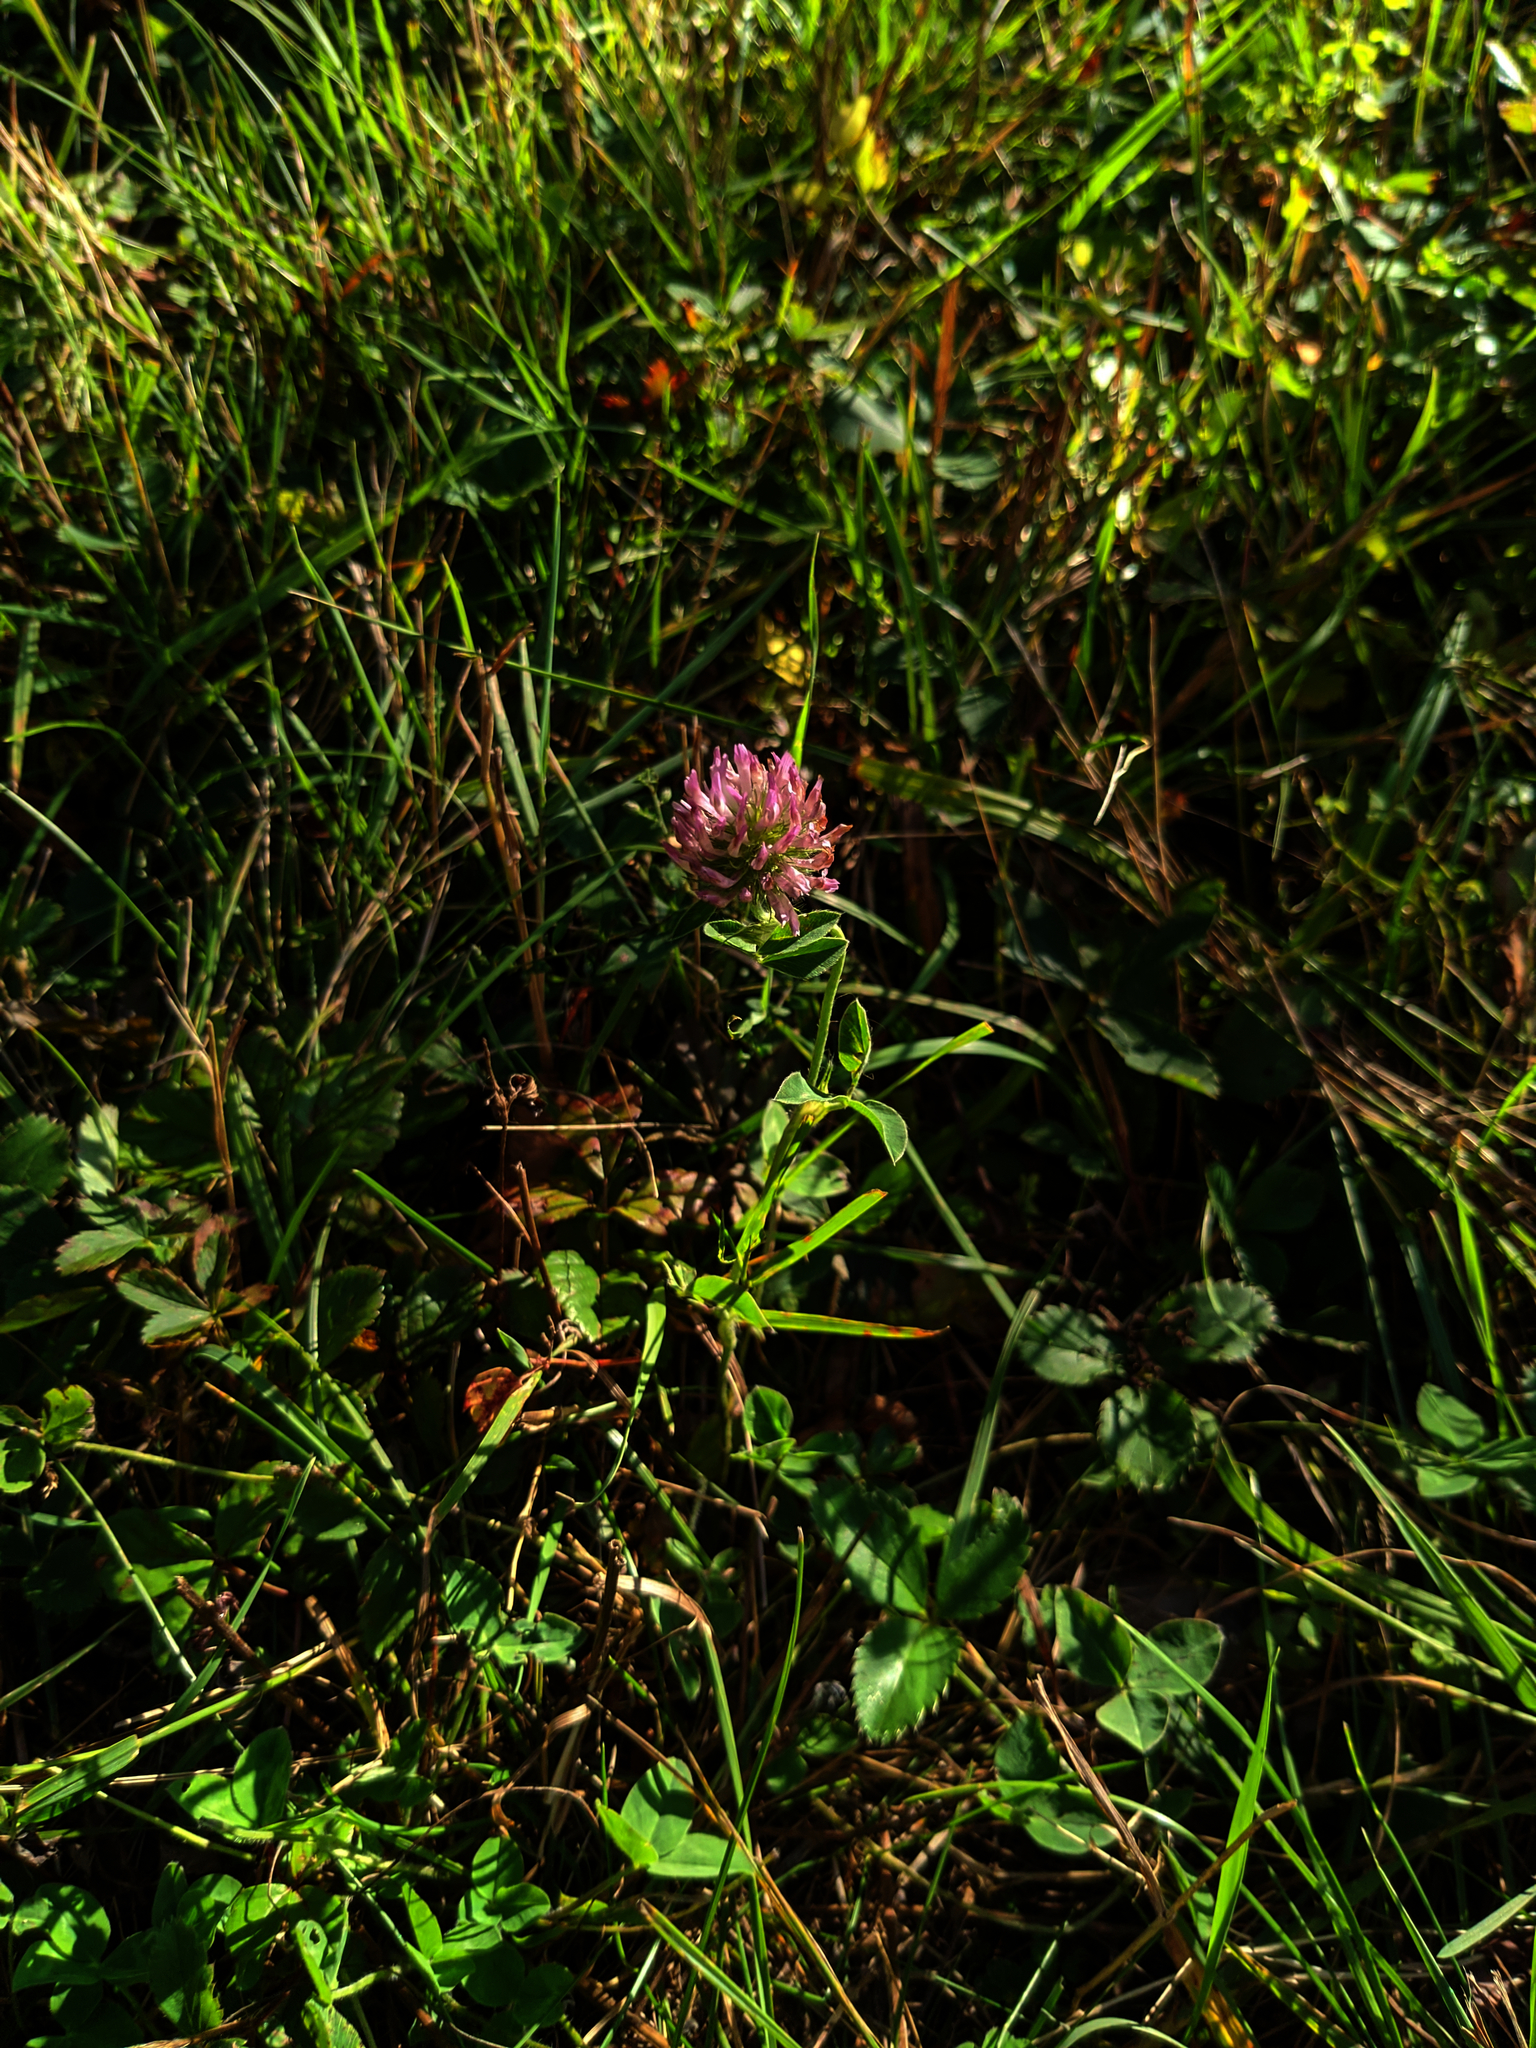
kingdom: Plantae
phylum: Tracheophyta
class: Magnoliopsida
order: Fabales
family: Fabaceae
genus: Trifolium
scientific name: Trifolium pratense
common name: Red clover
